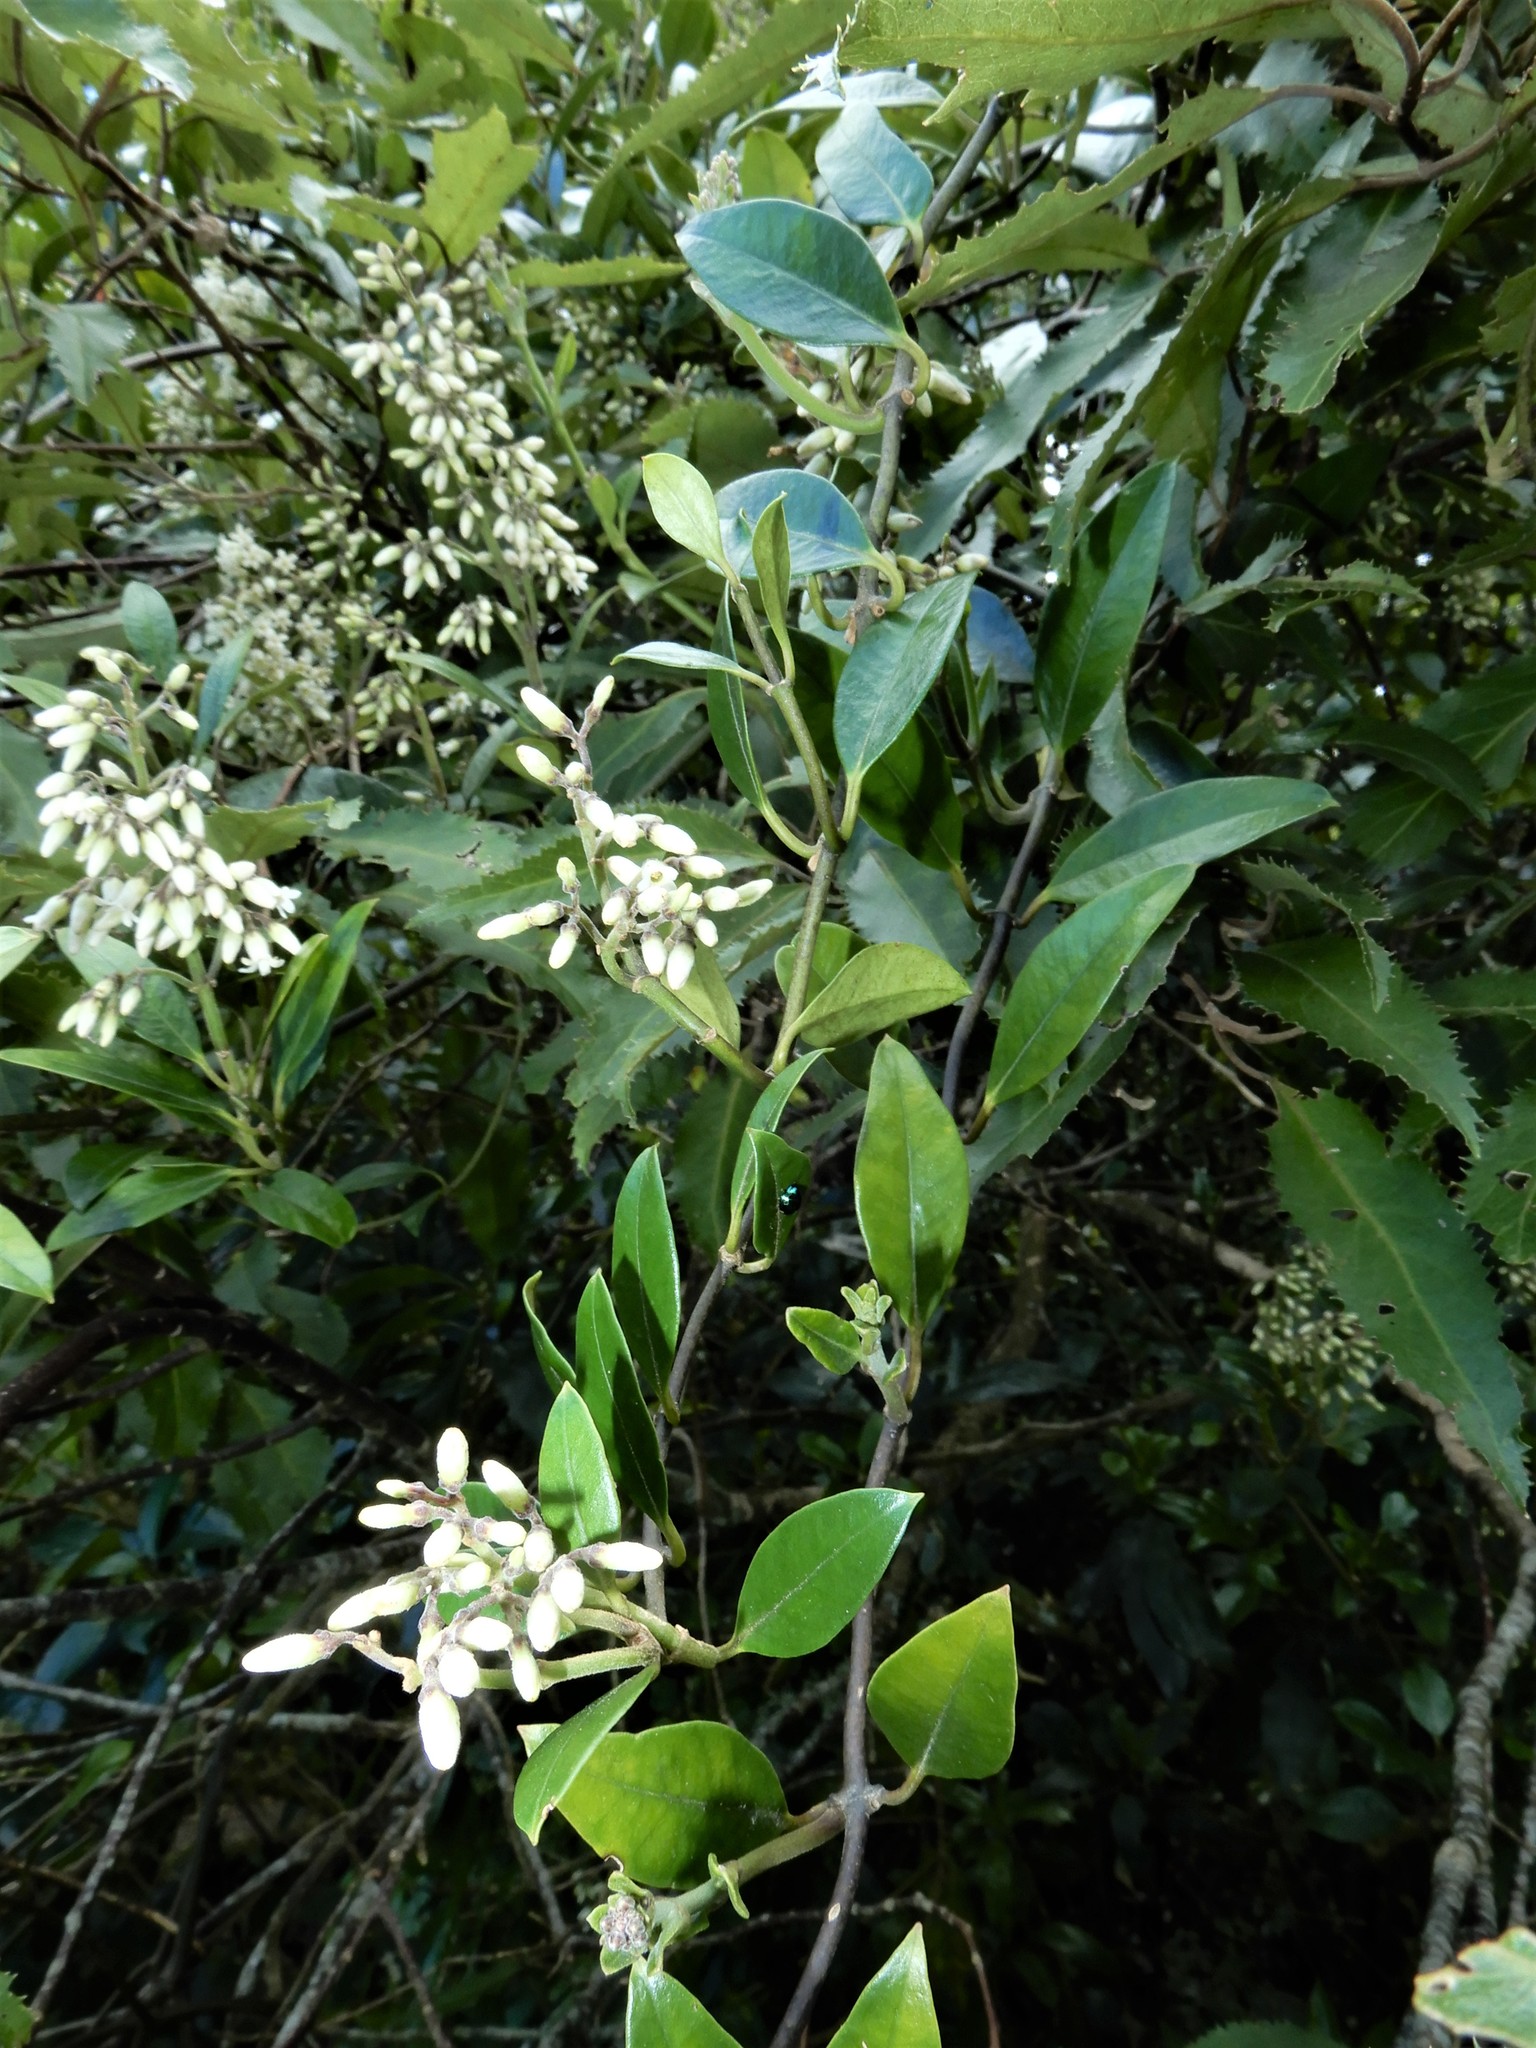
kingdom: Plantae
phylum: Tracheophyta
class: Magnoliopsida
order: Gentianales
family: Apocynaceae
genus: Parsonsia
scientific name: Parsonsia heterophylla
